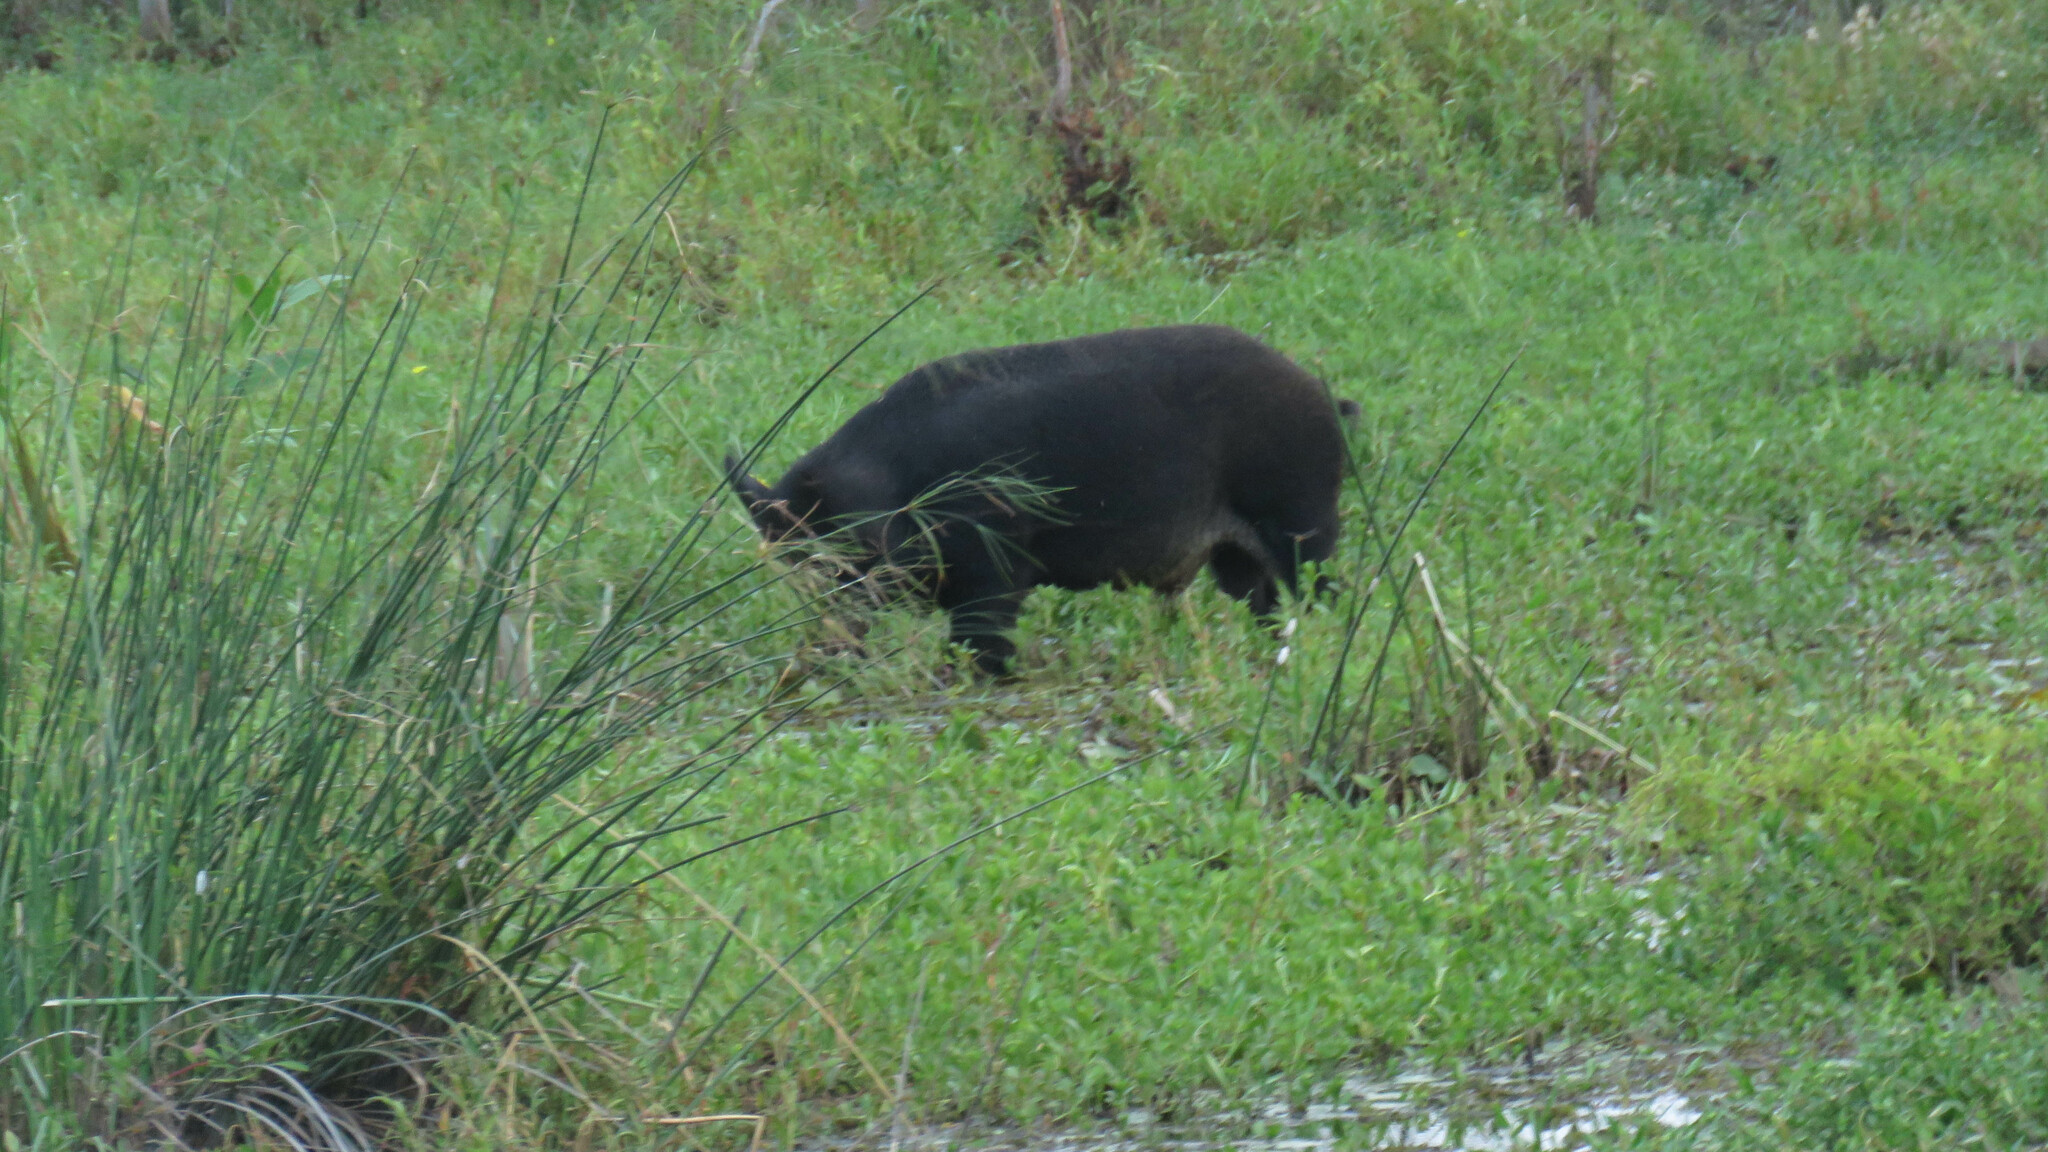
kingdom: Animalia
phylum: Chordata
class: Mammalia
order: Artiodactyla
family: Suidae
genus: Sus
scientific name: Sus scrofa
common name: Wild boar
